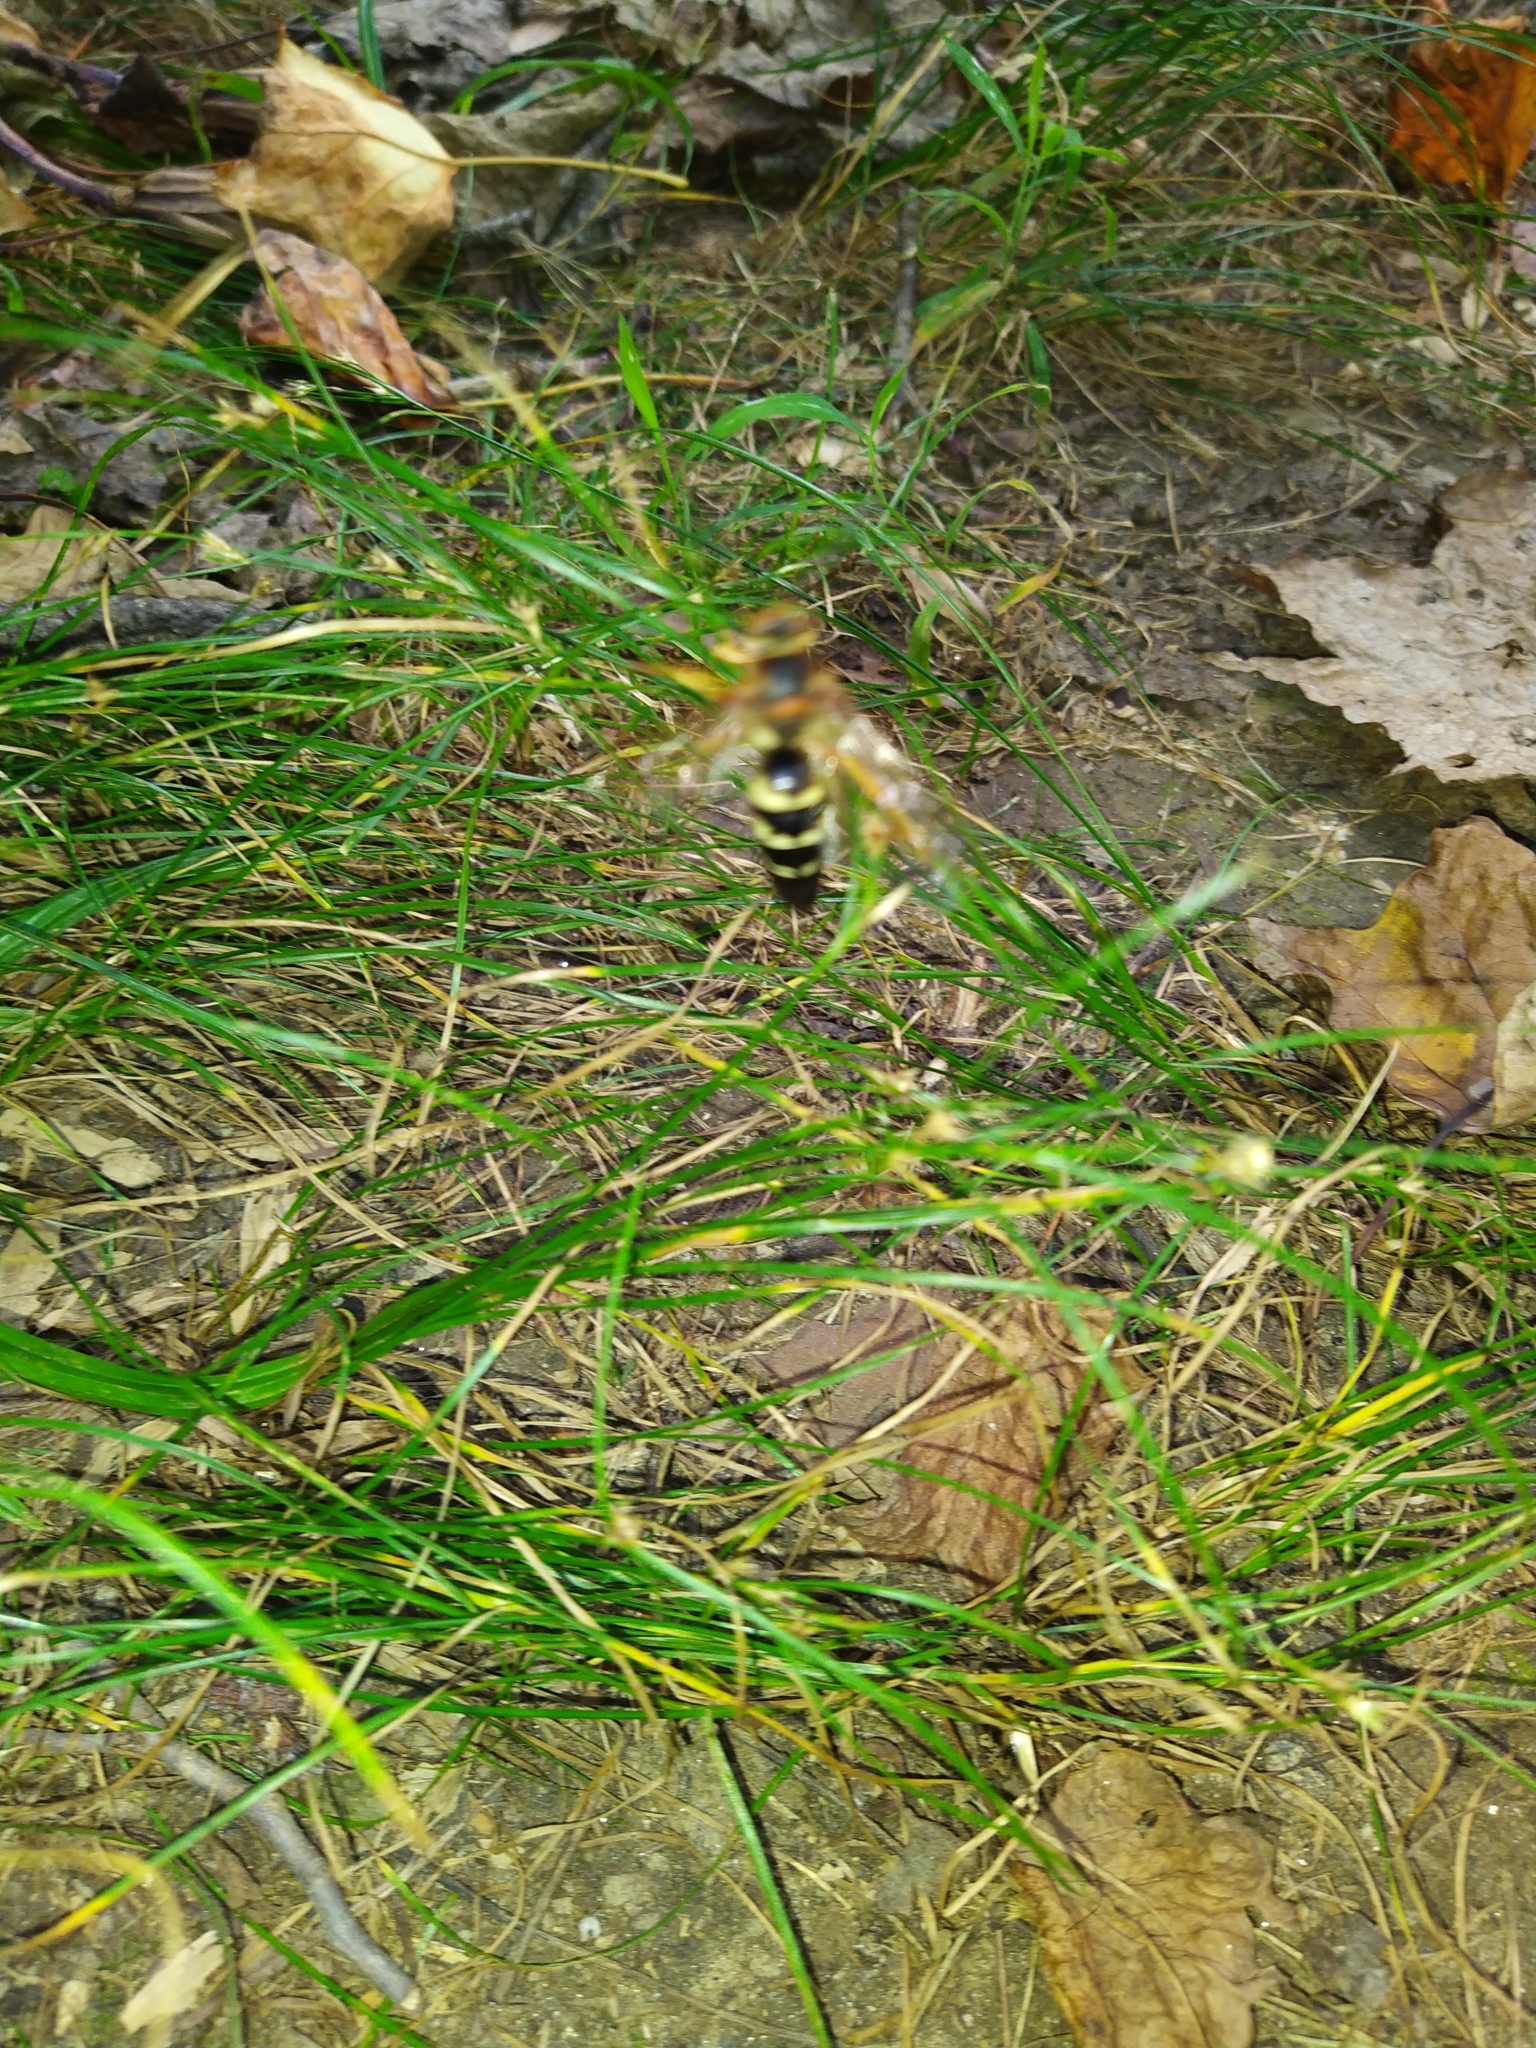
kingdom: Animalia
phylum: Arthropoda
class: Insecta
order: Hymenoptera
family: Crabronidae
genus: Sphecius
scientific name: Sphecius speciosus
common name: Cicada killer
